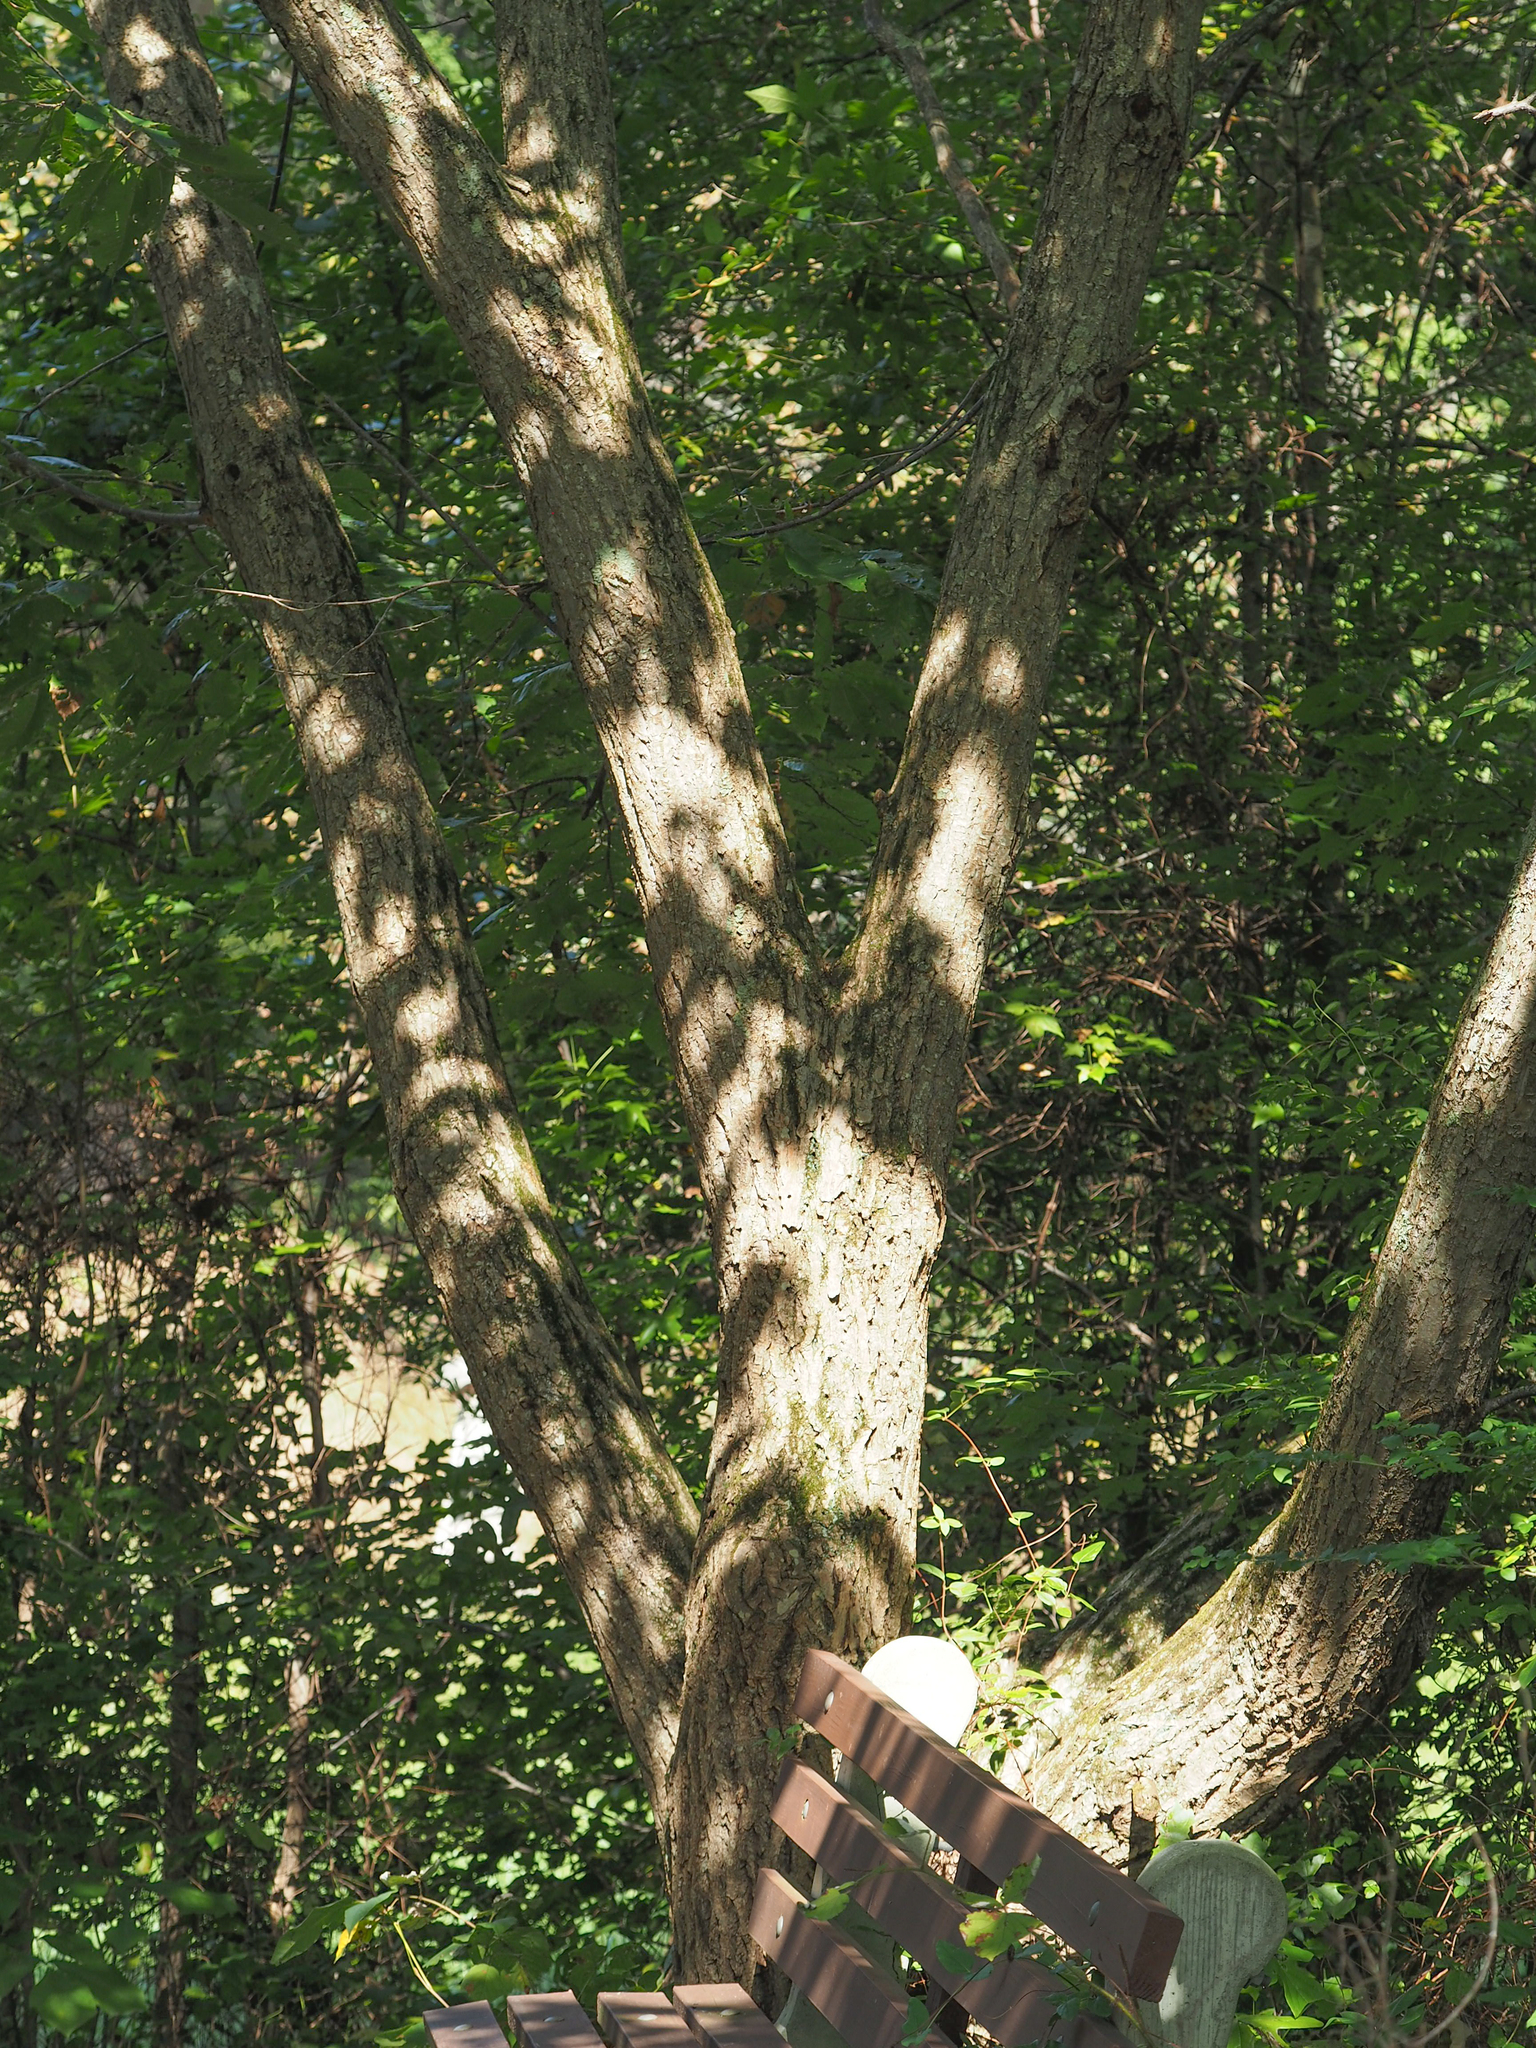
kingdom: Plantae
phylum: Tracheophyta
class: Magnoliopsida
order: Fagales
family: Fagaceae
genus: Castanea
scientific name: Castanea mollissima
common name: Chinese chestnut
